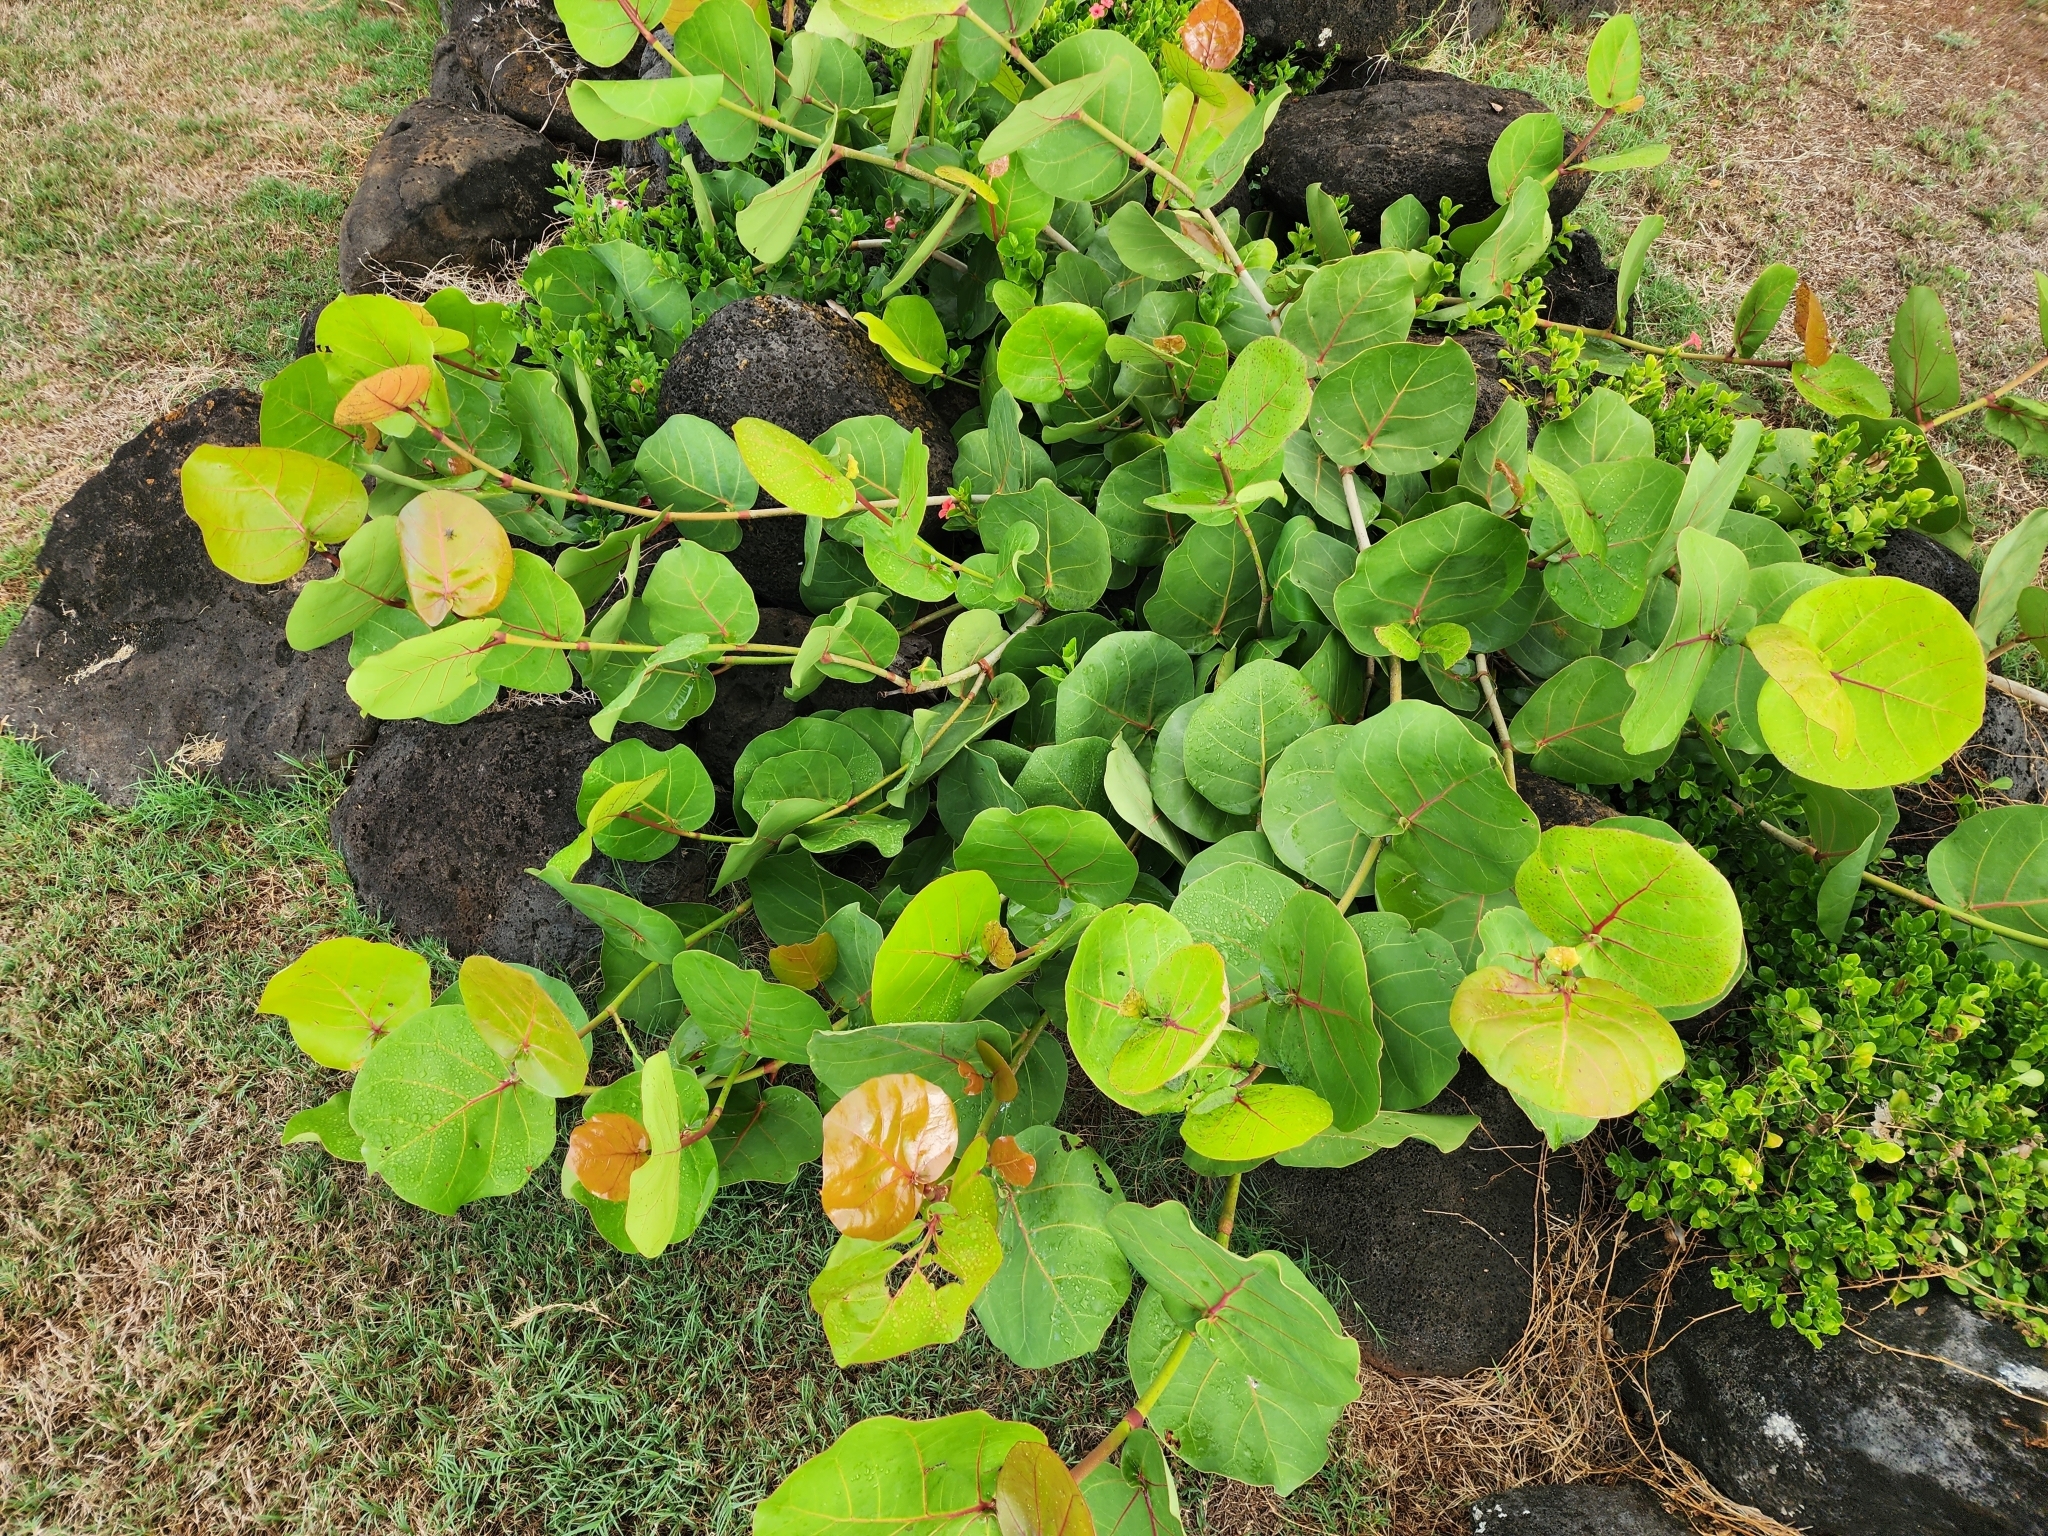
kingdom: Plantae
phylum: Tracheophyta
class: Magnoliopsida
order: Caryophyllales
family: Polygonaceae
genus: Coccoloba
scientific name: Coccoloba uvifera
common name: Seagrape
